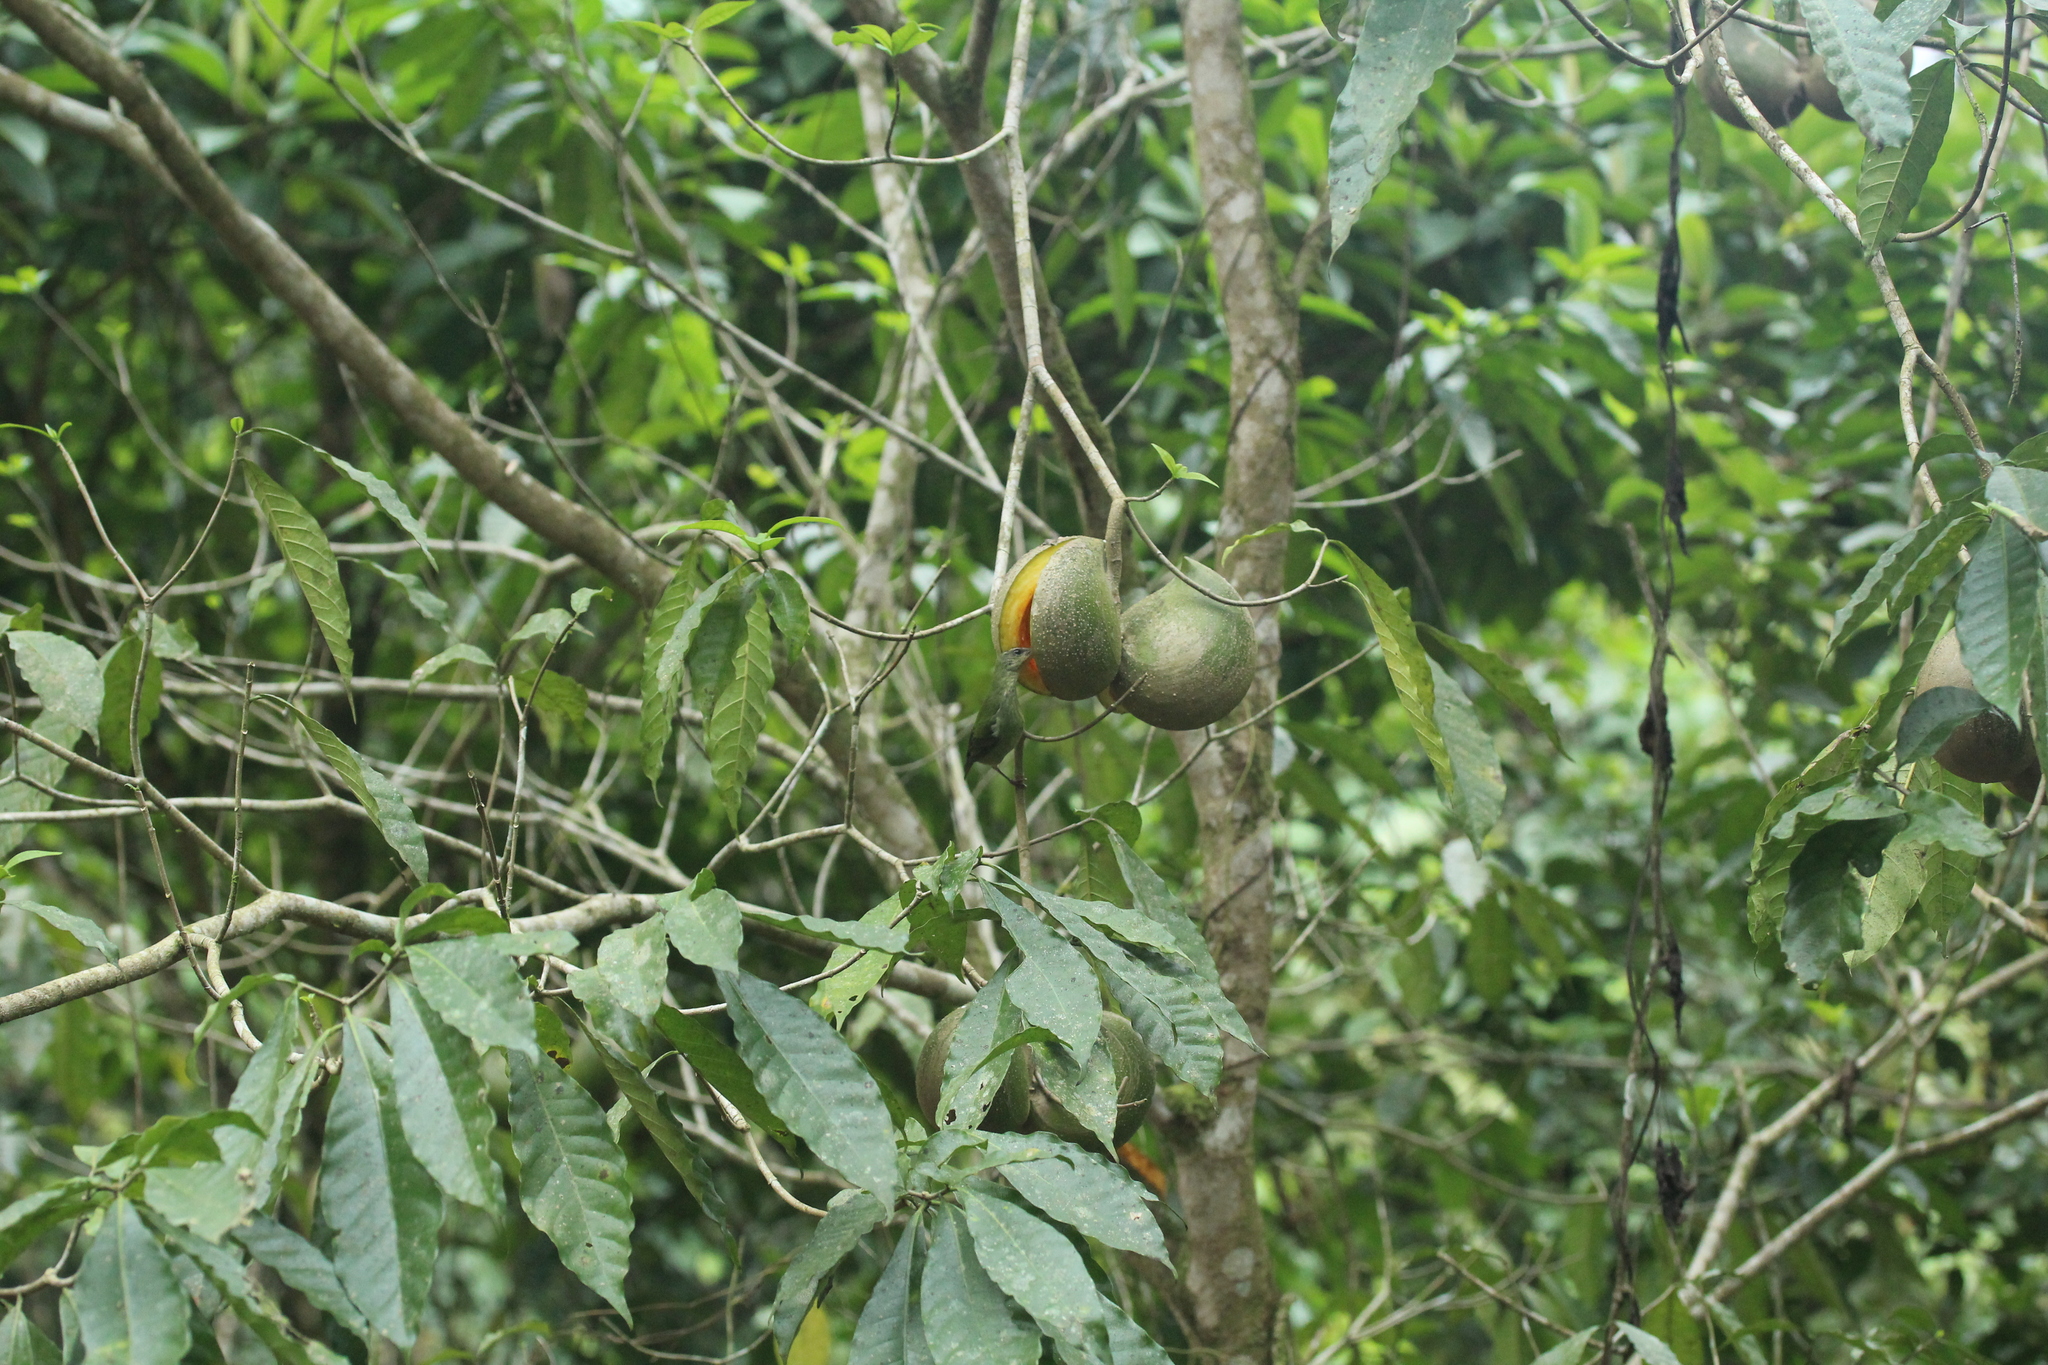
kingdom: Animalia
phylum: Chordata
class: Aves
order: Passeriformes
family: Thraupidae
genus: Cyanerpes
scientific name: Cyanerpes cyaneus
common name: Red-legged honeycreeper
